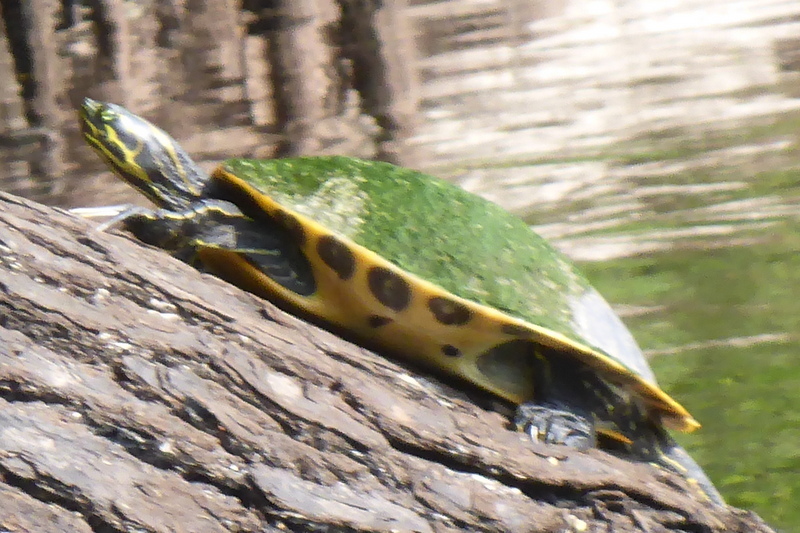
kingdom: Animalia
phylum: Chordata
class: Testudines
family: Emydidae
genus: Pseudemys
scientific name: Pseudemys concinna
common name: Eastern river cooter
